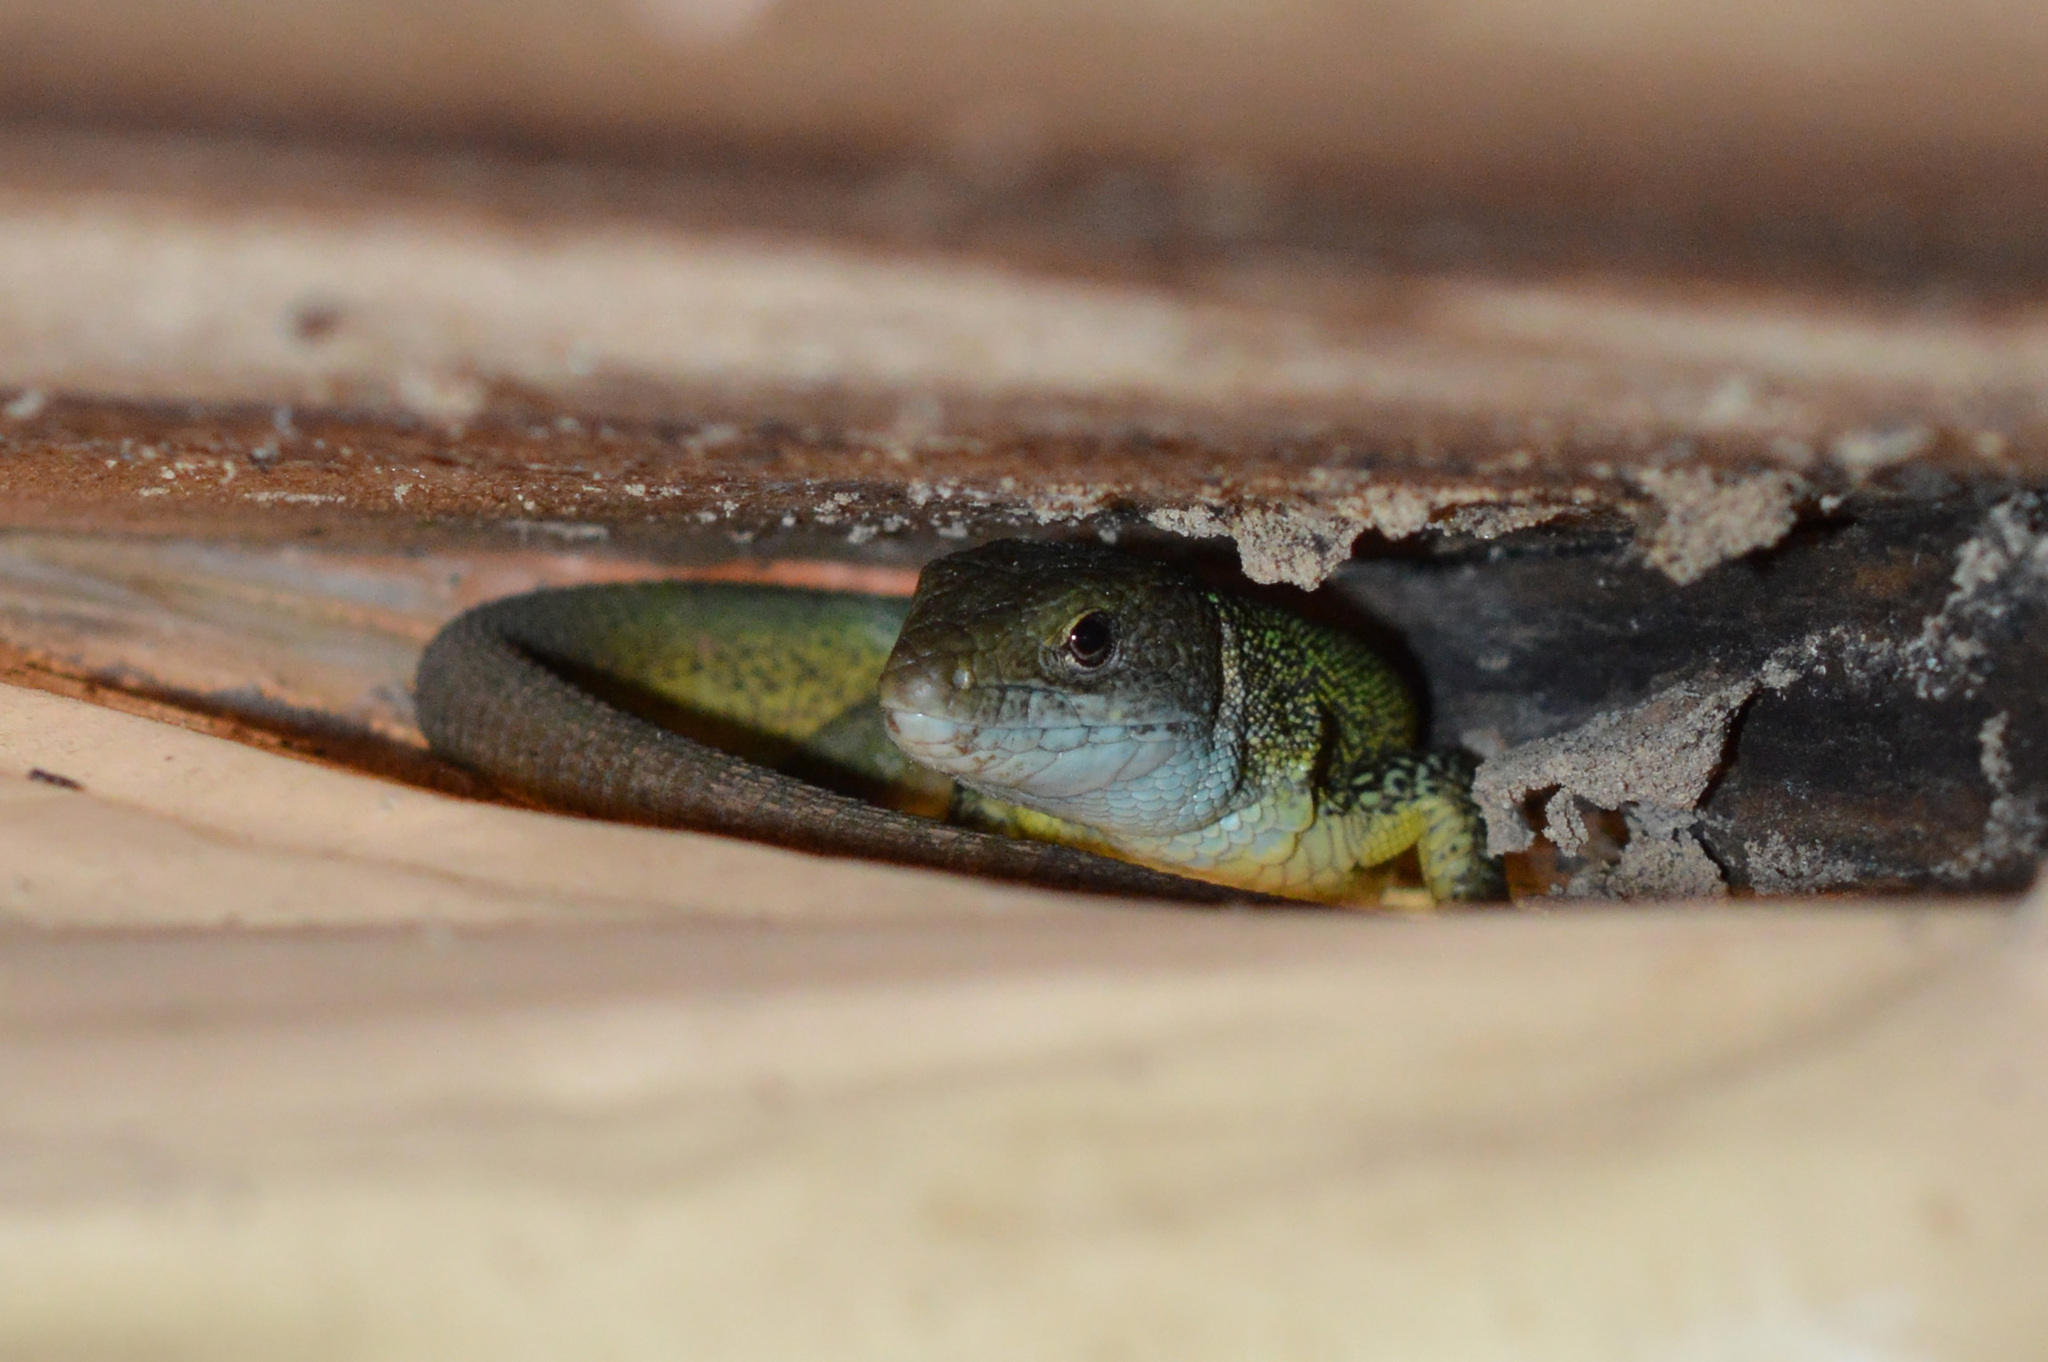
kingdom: Animalia
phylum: Chordata
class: Squamata
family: Lacertidae
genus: Lacerta
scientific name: Lacerta viridis
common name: European green lizard
